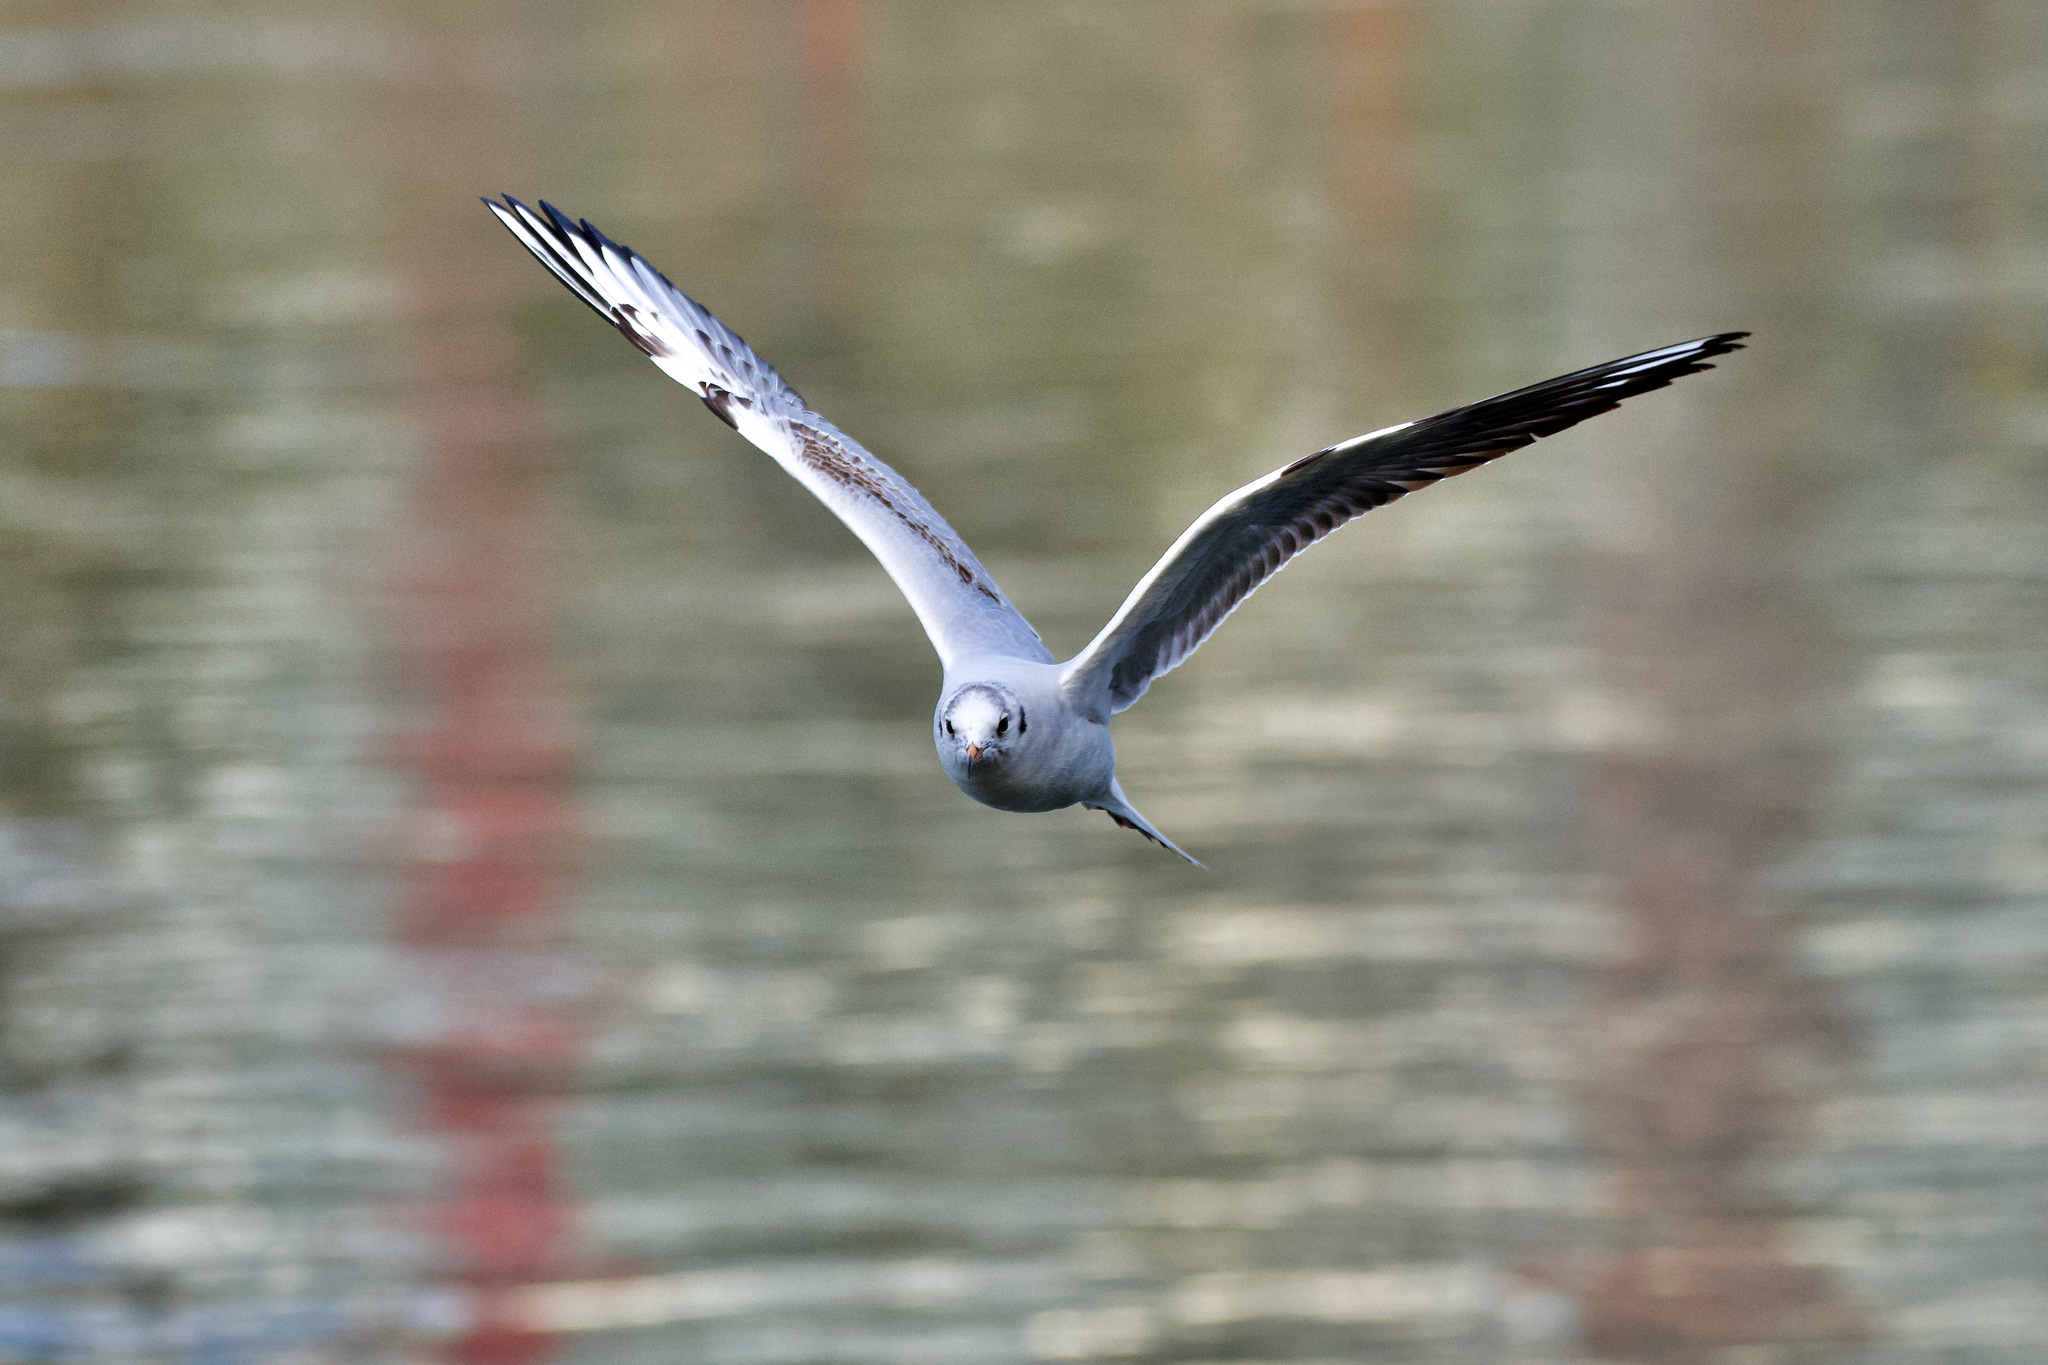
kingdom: Animalia
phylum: Chordata
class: Aves
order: Charadriiformes
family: Laridae
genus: Chroicocephalus
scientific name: Chroicocephalus ridibundus
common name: Black-headed gull
